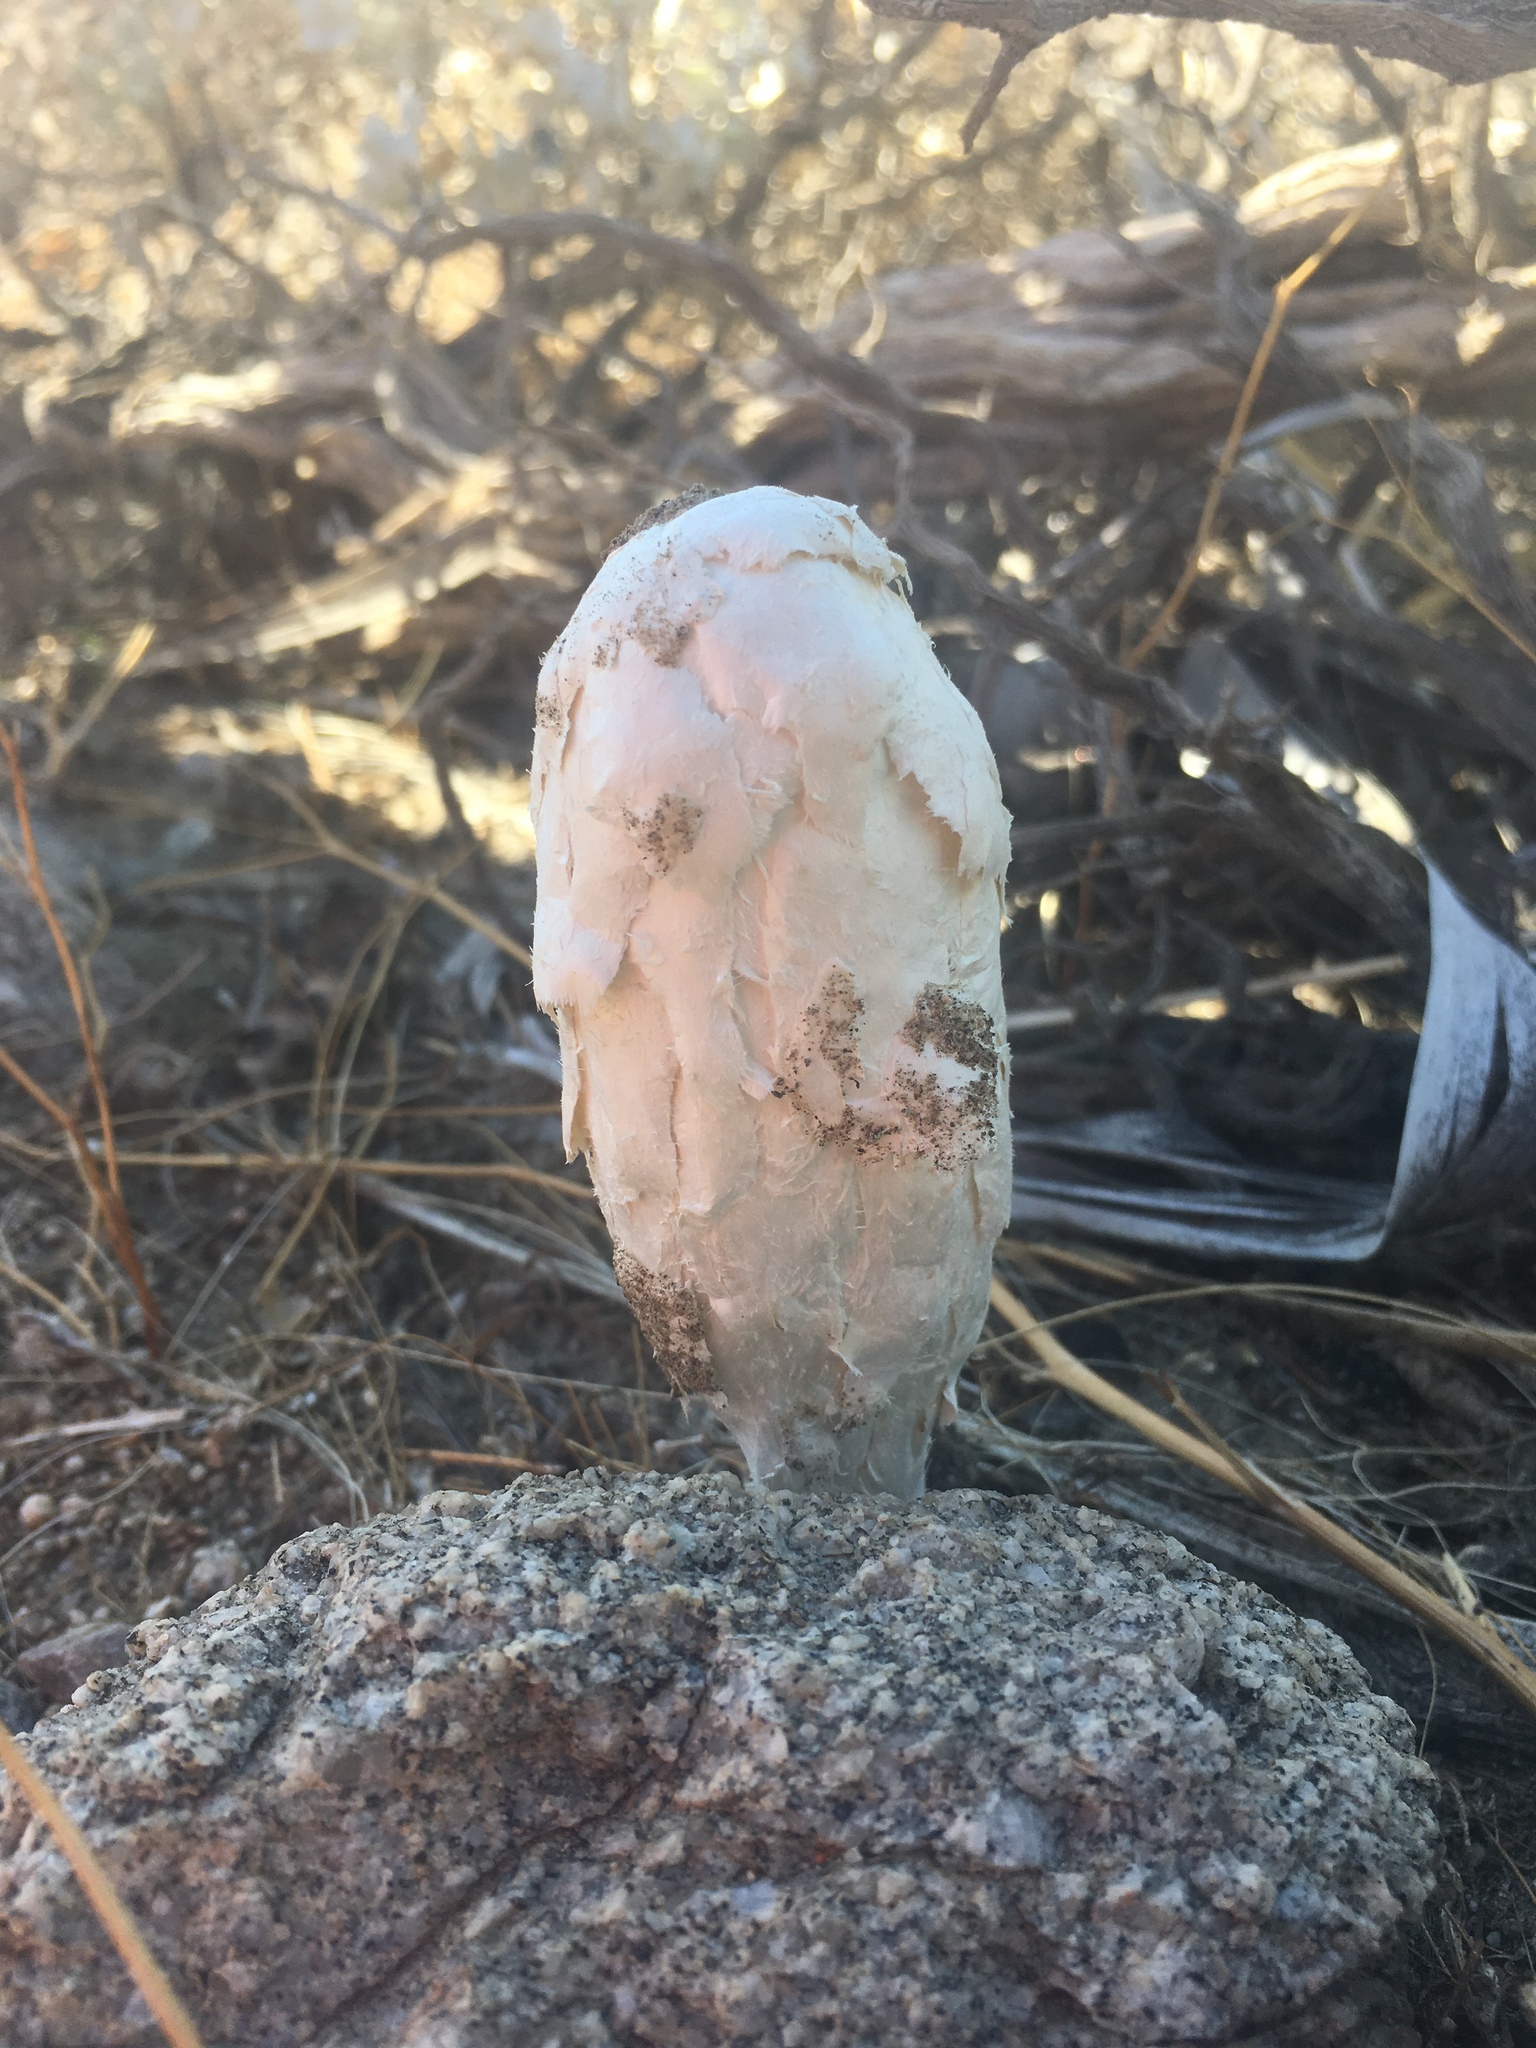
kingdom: Fungi
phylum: Basidiomycota
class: Agaricomycetes
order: Agaricales
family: Agaricaceae
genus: Podaxis
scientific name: Podaxis pistillaris
